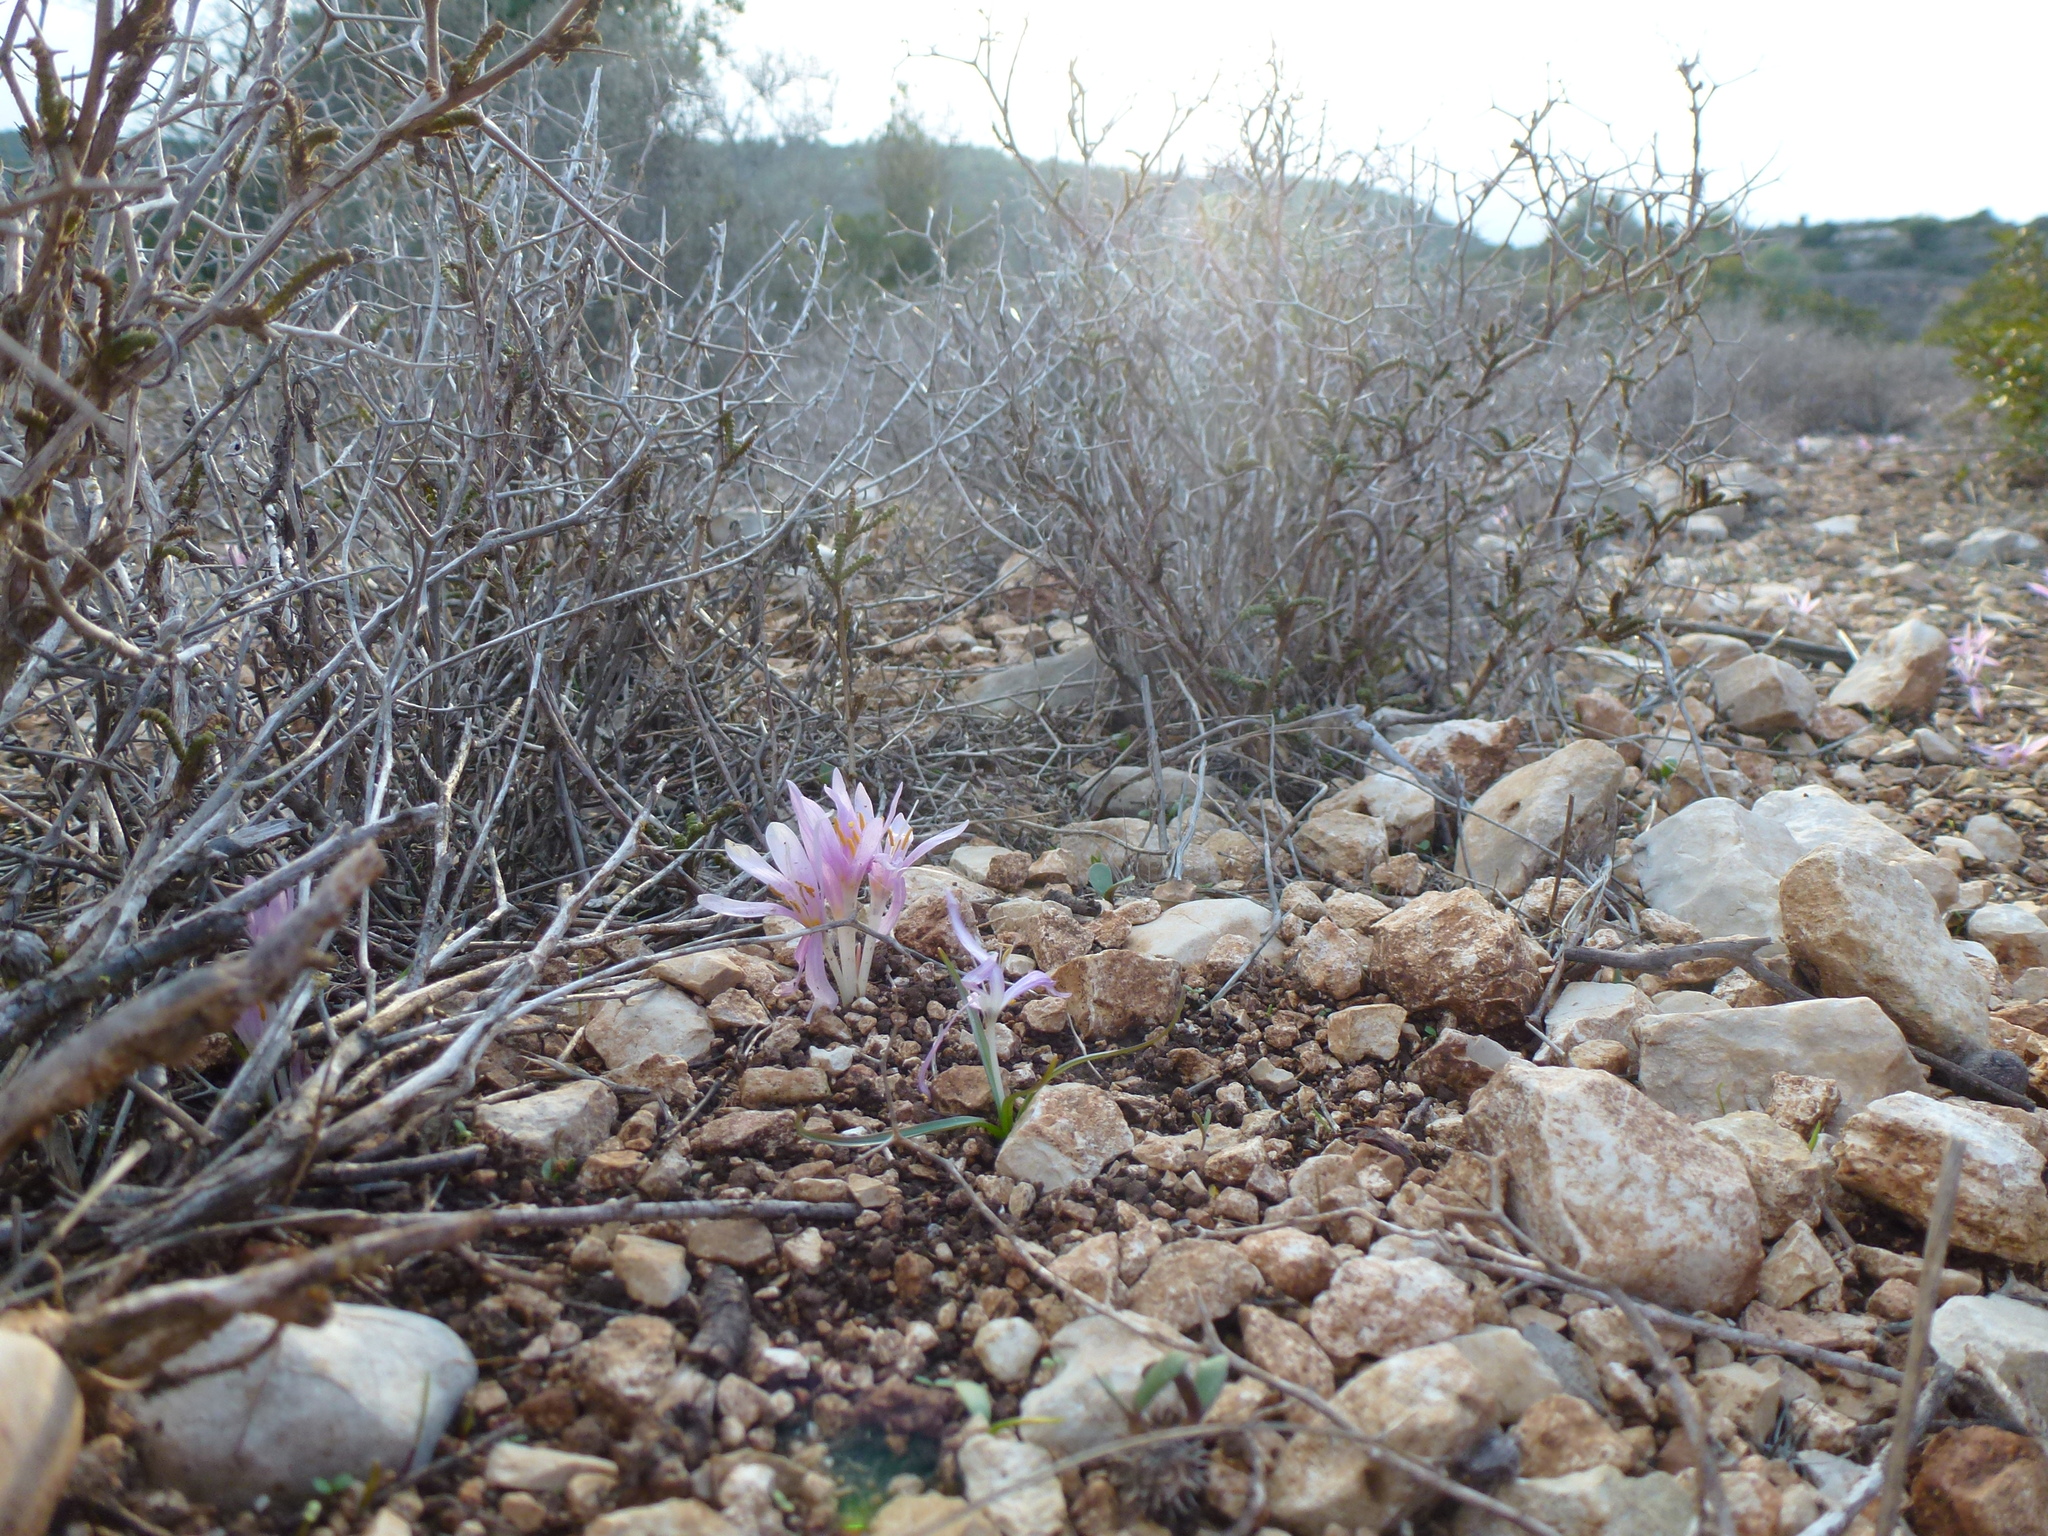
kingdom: Plantae
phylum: Tracheophyta
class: Liliopsida
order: Liliales
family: Colchicaceae
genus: Colchicum
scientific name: Colchicum stevenii
